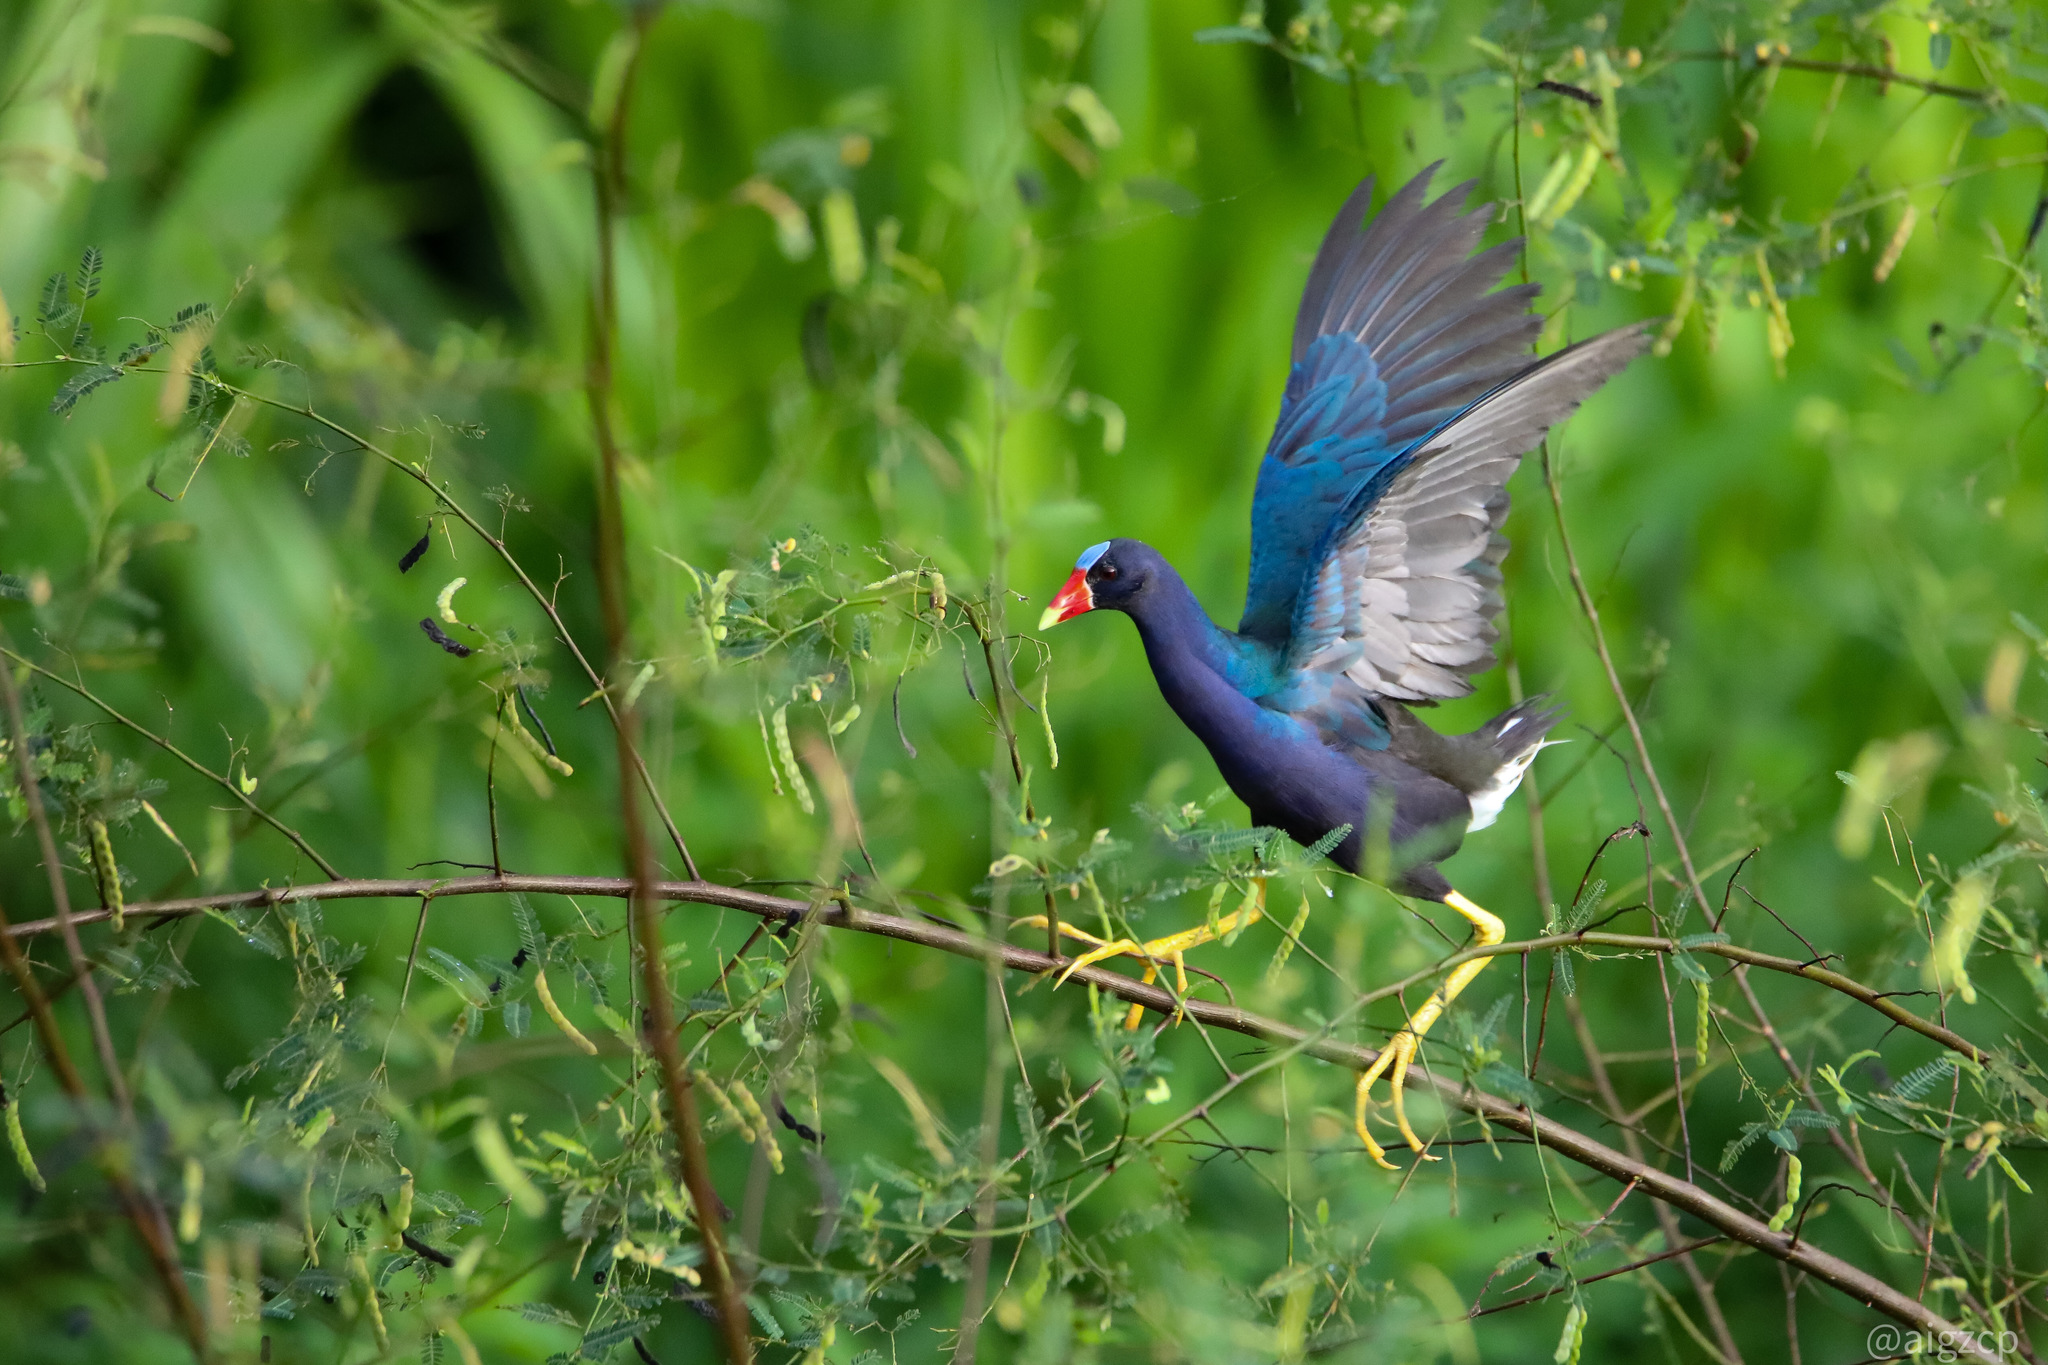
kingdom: Animalia
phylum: Chordata
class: Aves
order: Gruiformes
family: Rallidae
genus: Porphyrio
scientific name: Porphyrio martinica
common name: Purple gallinule
